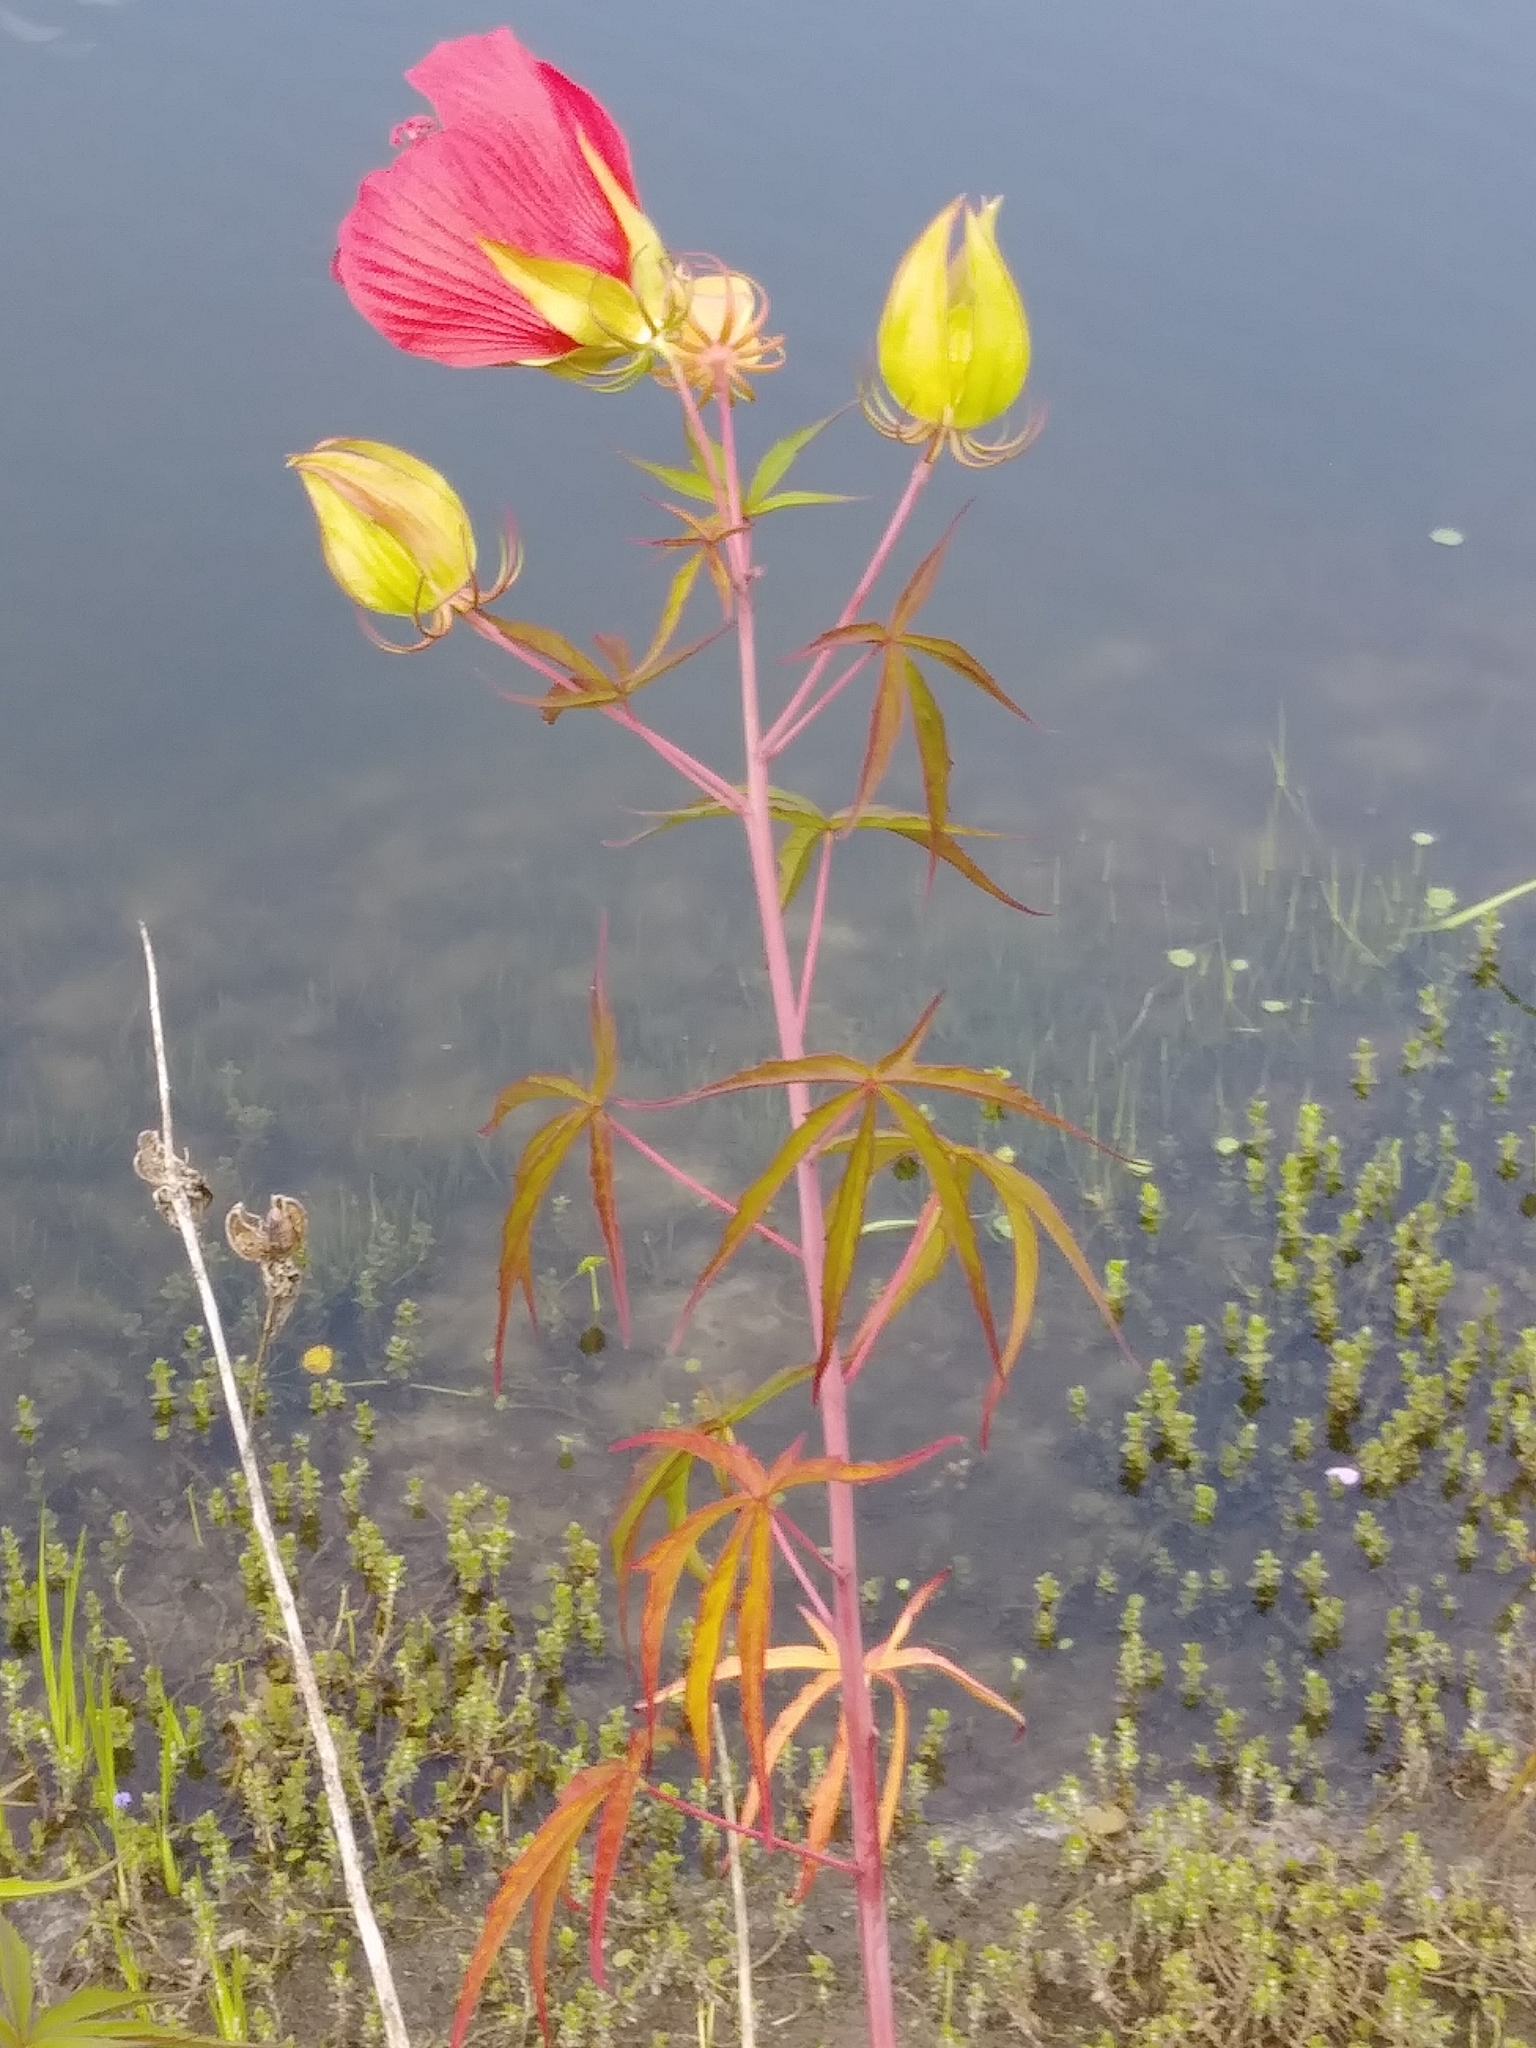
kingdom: Plantae
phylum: Tracheophyta
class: Magnoliopsida
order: Malvales
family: Malvaceae
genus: Hibiscus
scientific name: Hibiscus coccineus
